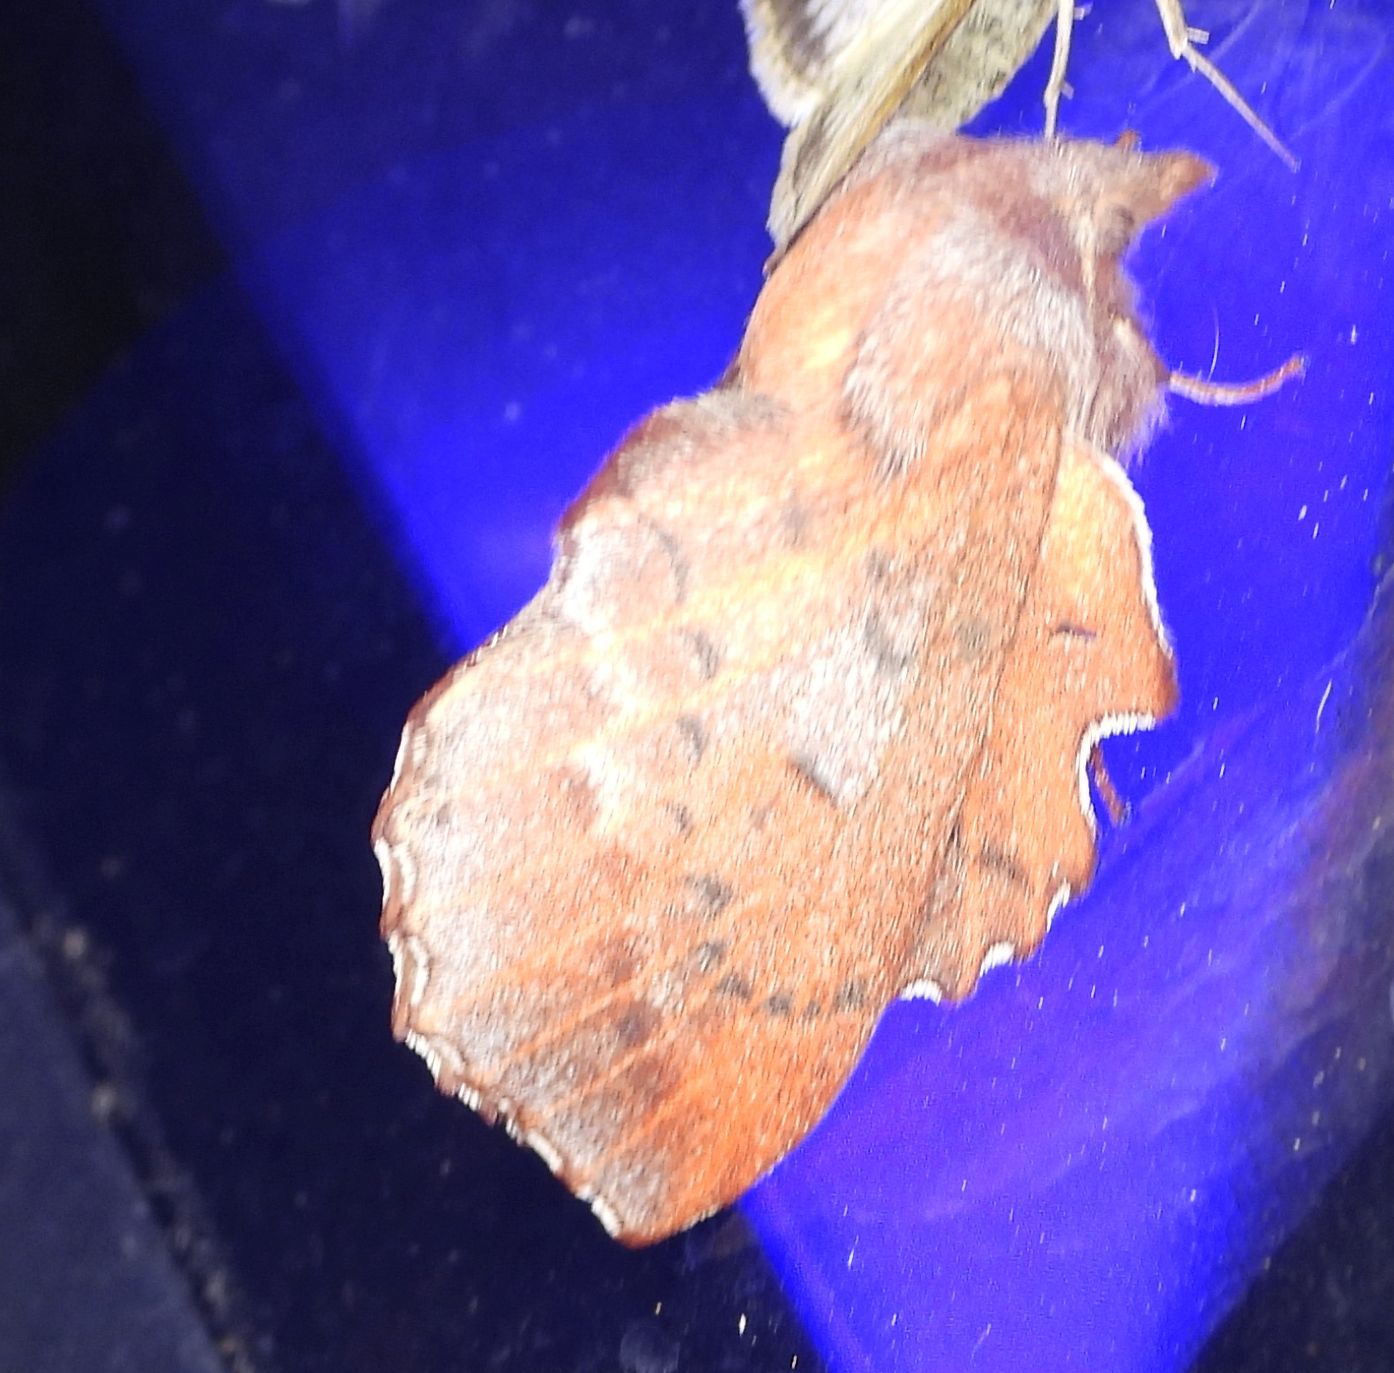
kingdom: Animalia
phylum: Arthropoda
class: Insecta
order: Lepidoptera
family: Lasiocampidae
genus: Phyllodesma
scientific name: Phyllodesma americana
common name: American lappet moth
